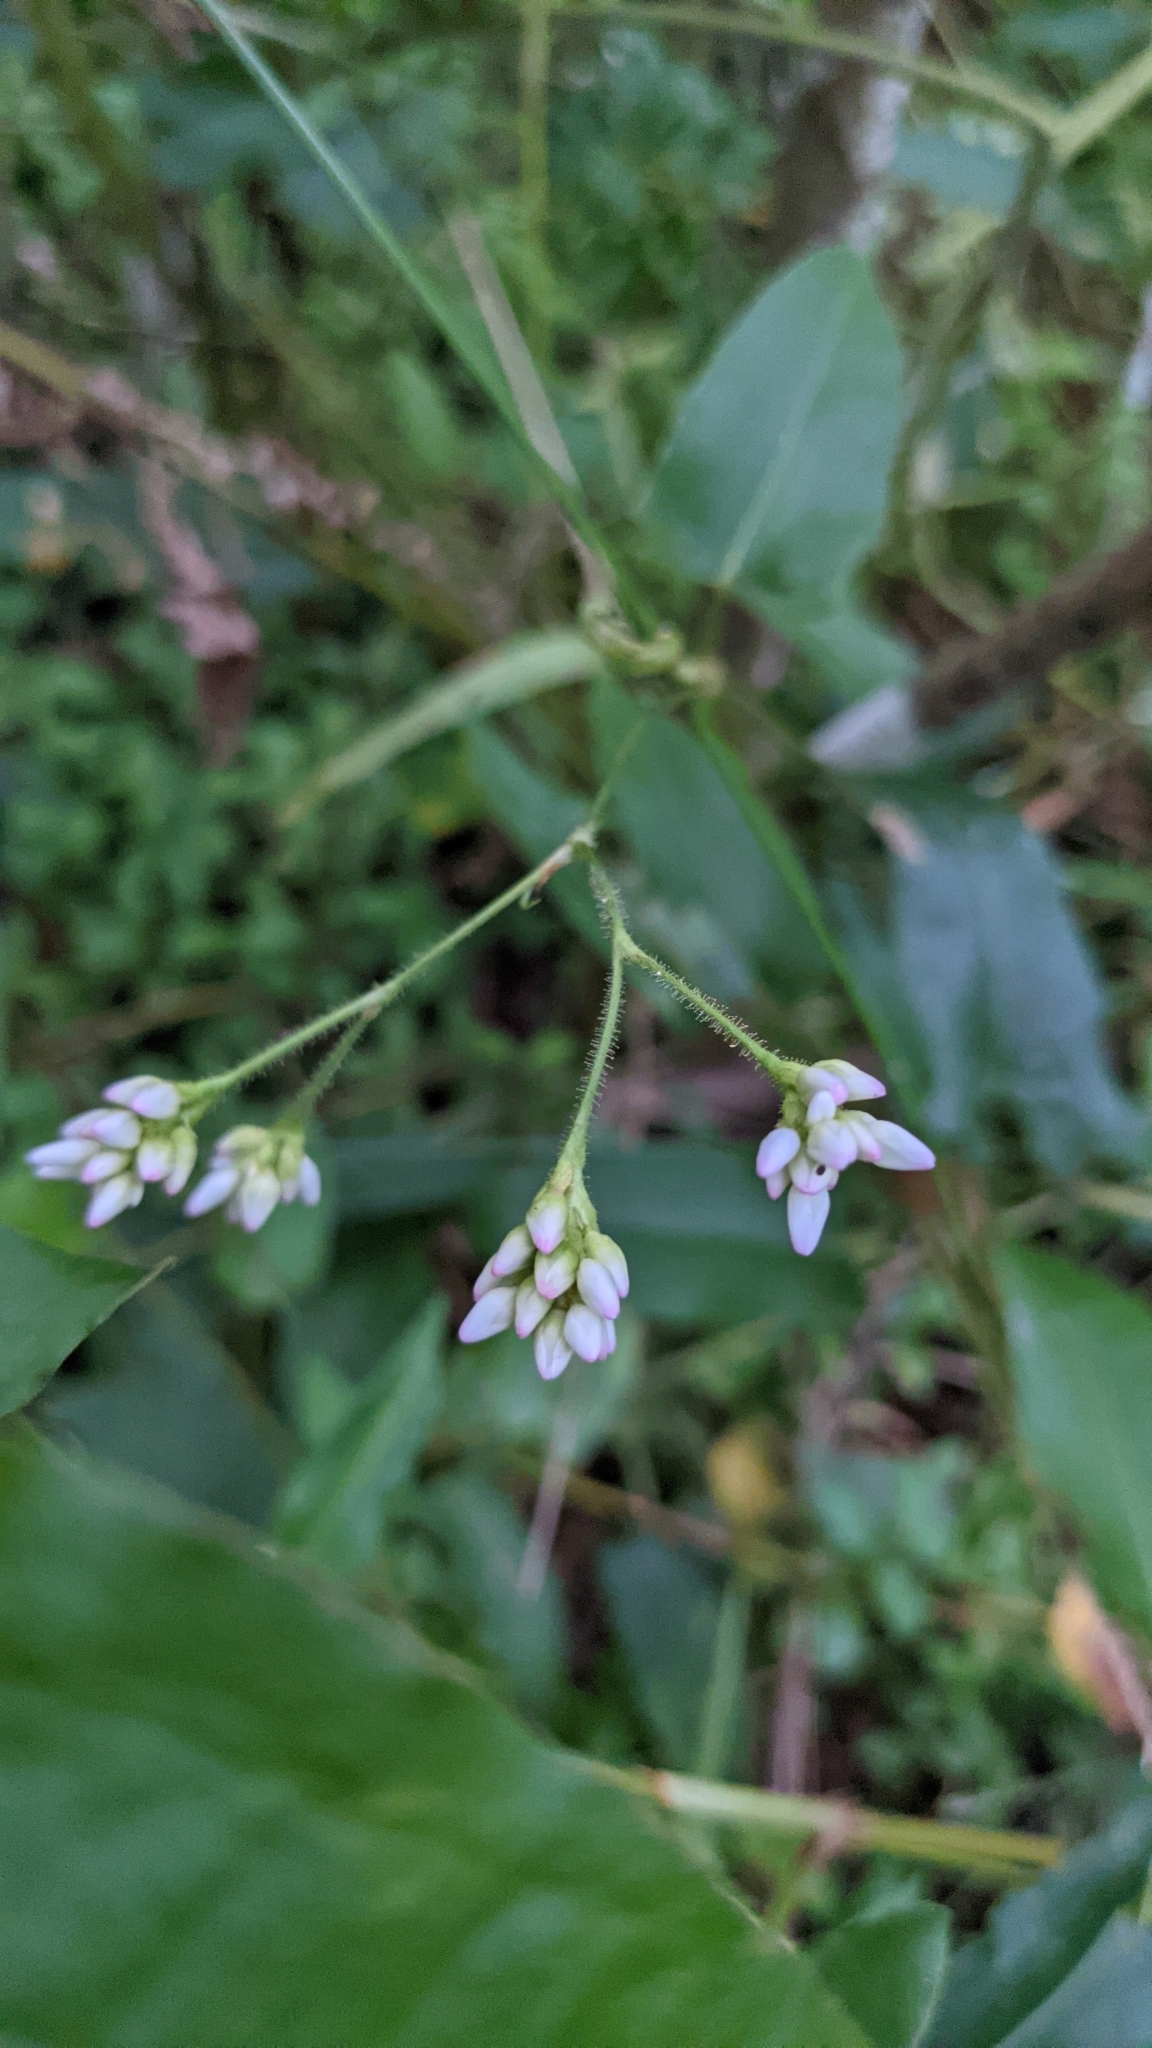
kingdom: Plantae
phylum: Tracheophyta
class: Magnoliopsida
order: Caryophyllales
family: Polygonaceae
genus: Persicaria
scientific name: Persicaria strigosa
